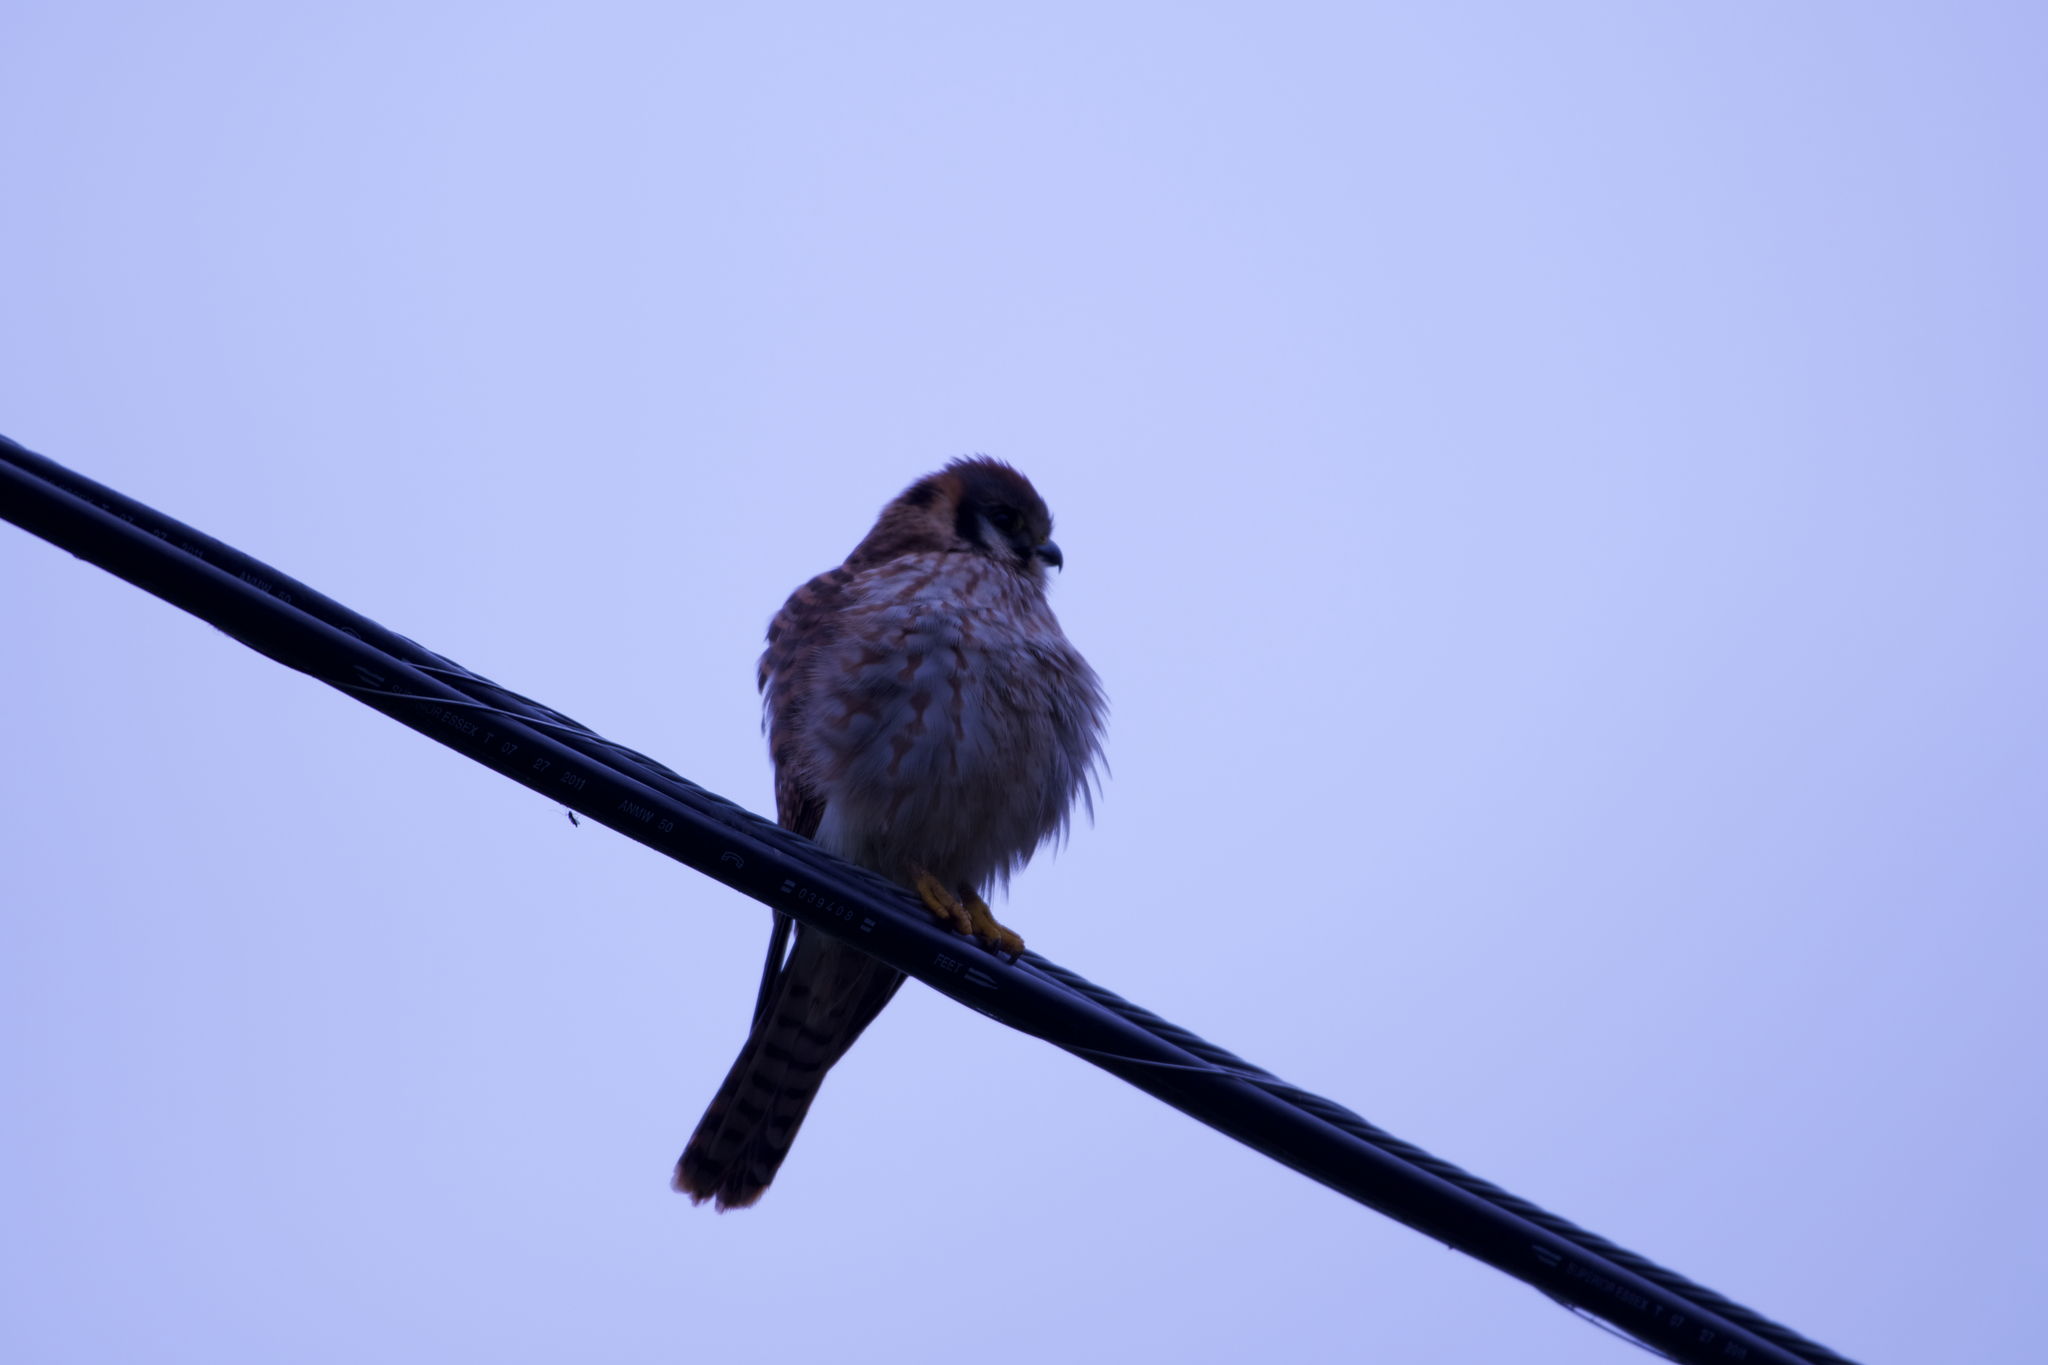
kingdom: Animalia
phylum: Chordata
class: Aves
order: Falconiformes
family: Falconidae
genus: Falco
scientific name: Falco sparverius
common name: American kestrel
